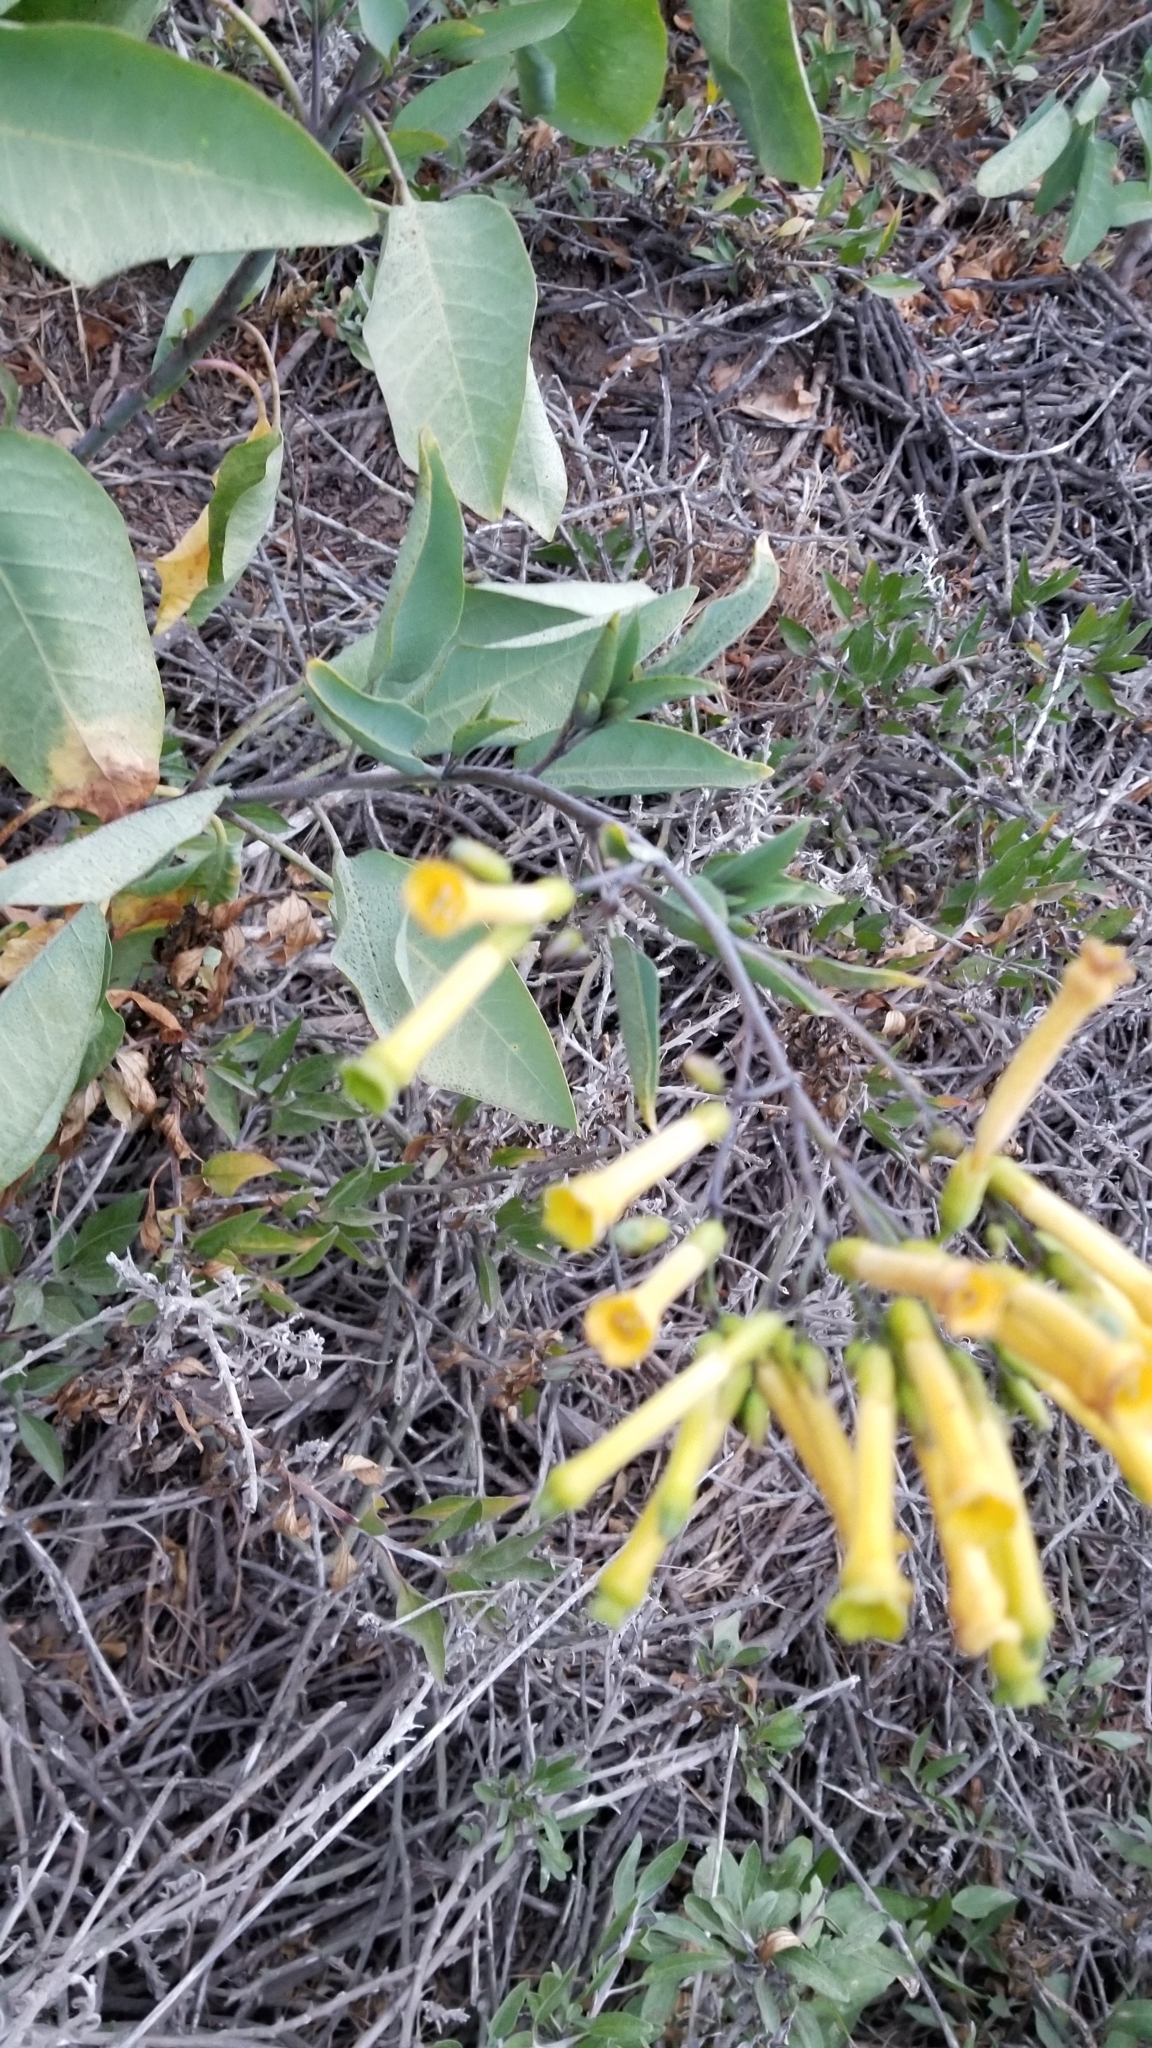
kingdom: Plantae
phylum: Tracheophyta
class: Magnoliopsida
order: Solanales
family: Solanaceae
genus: Nicotiana
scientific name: Nicotiana glauca
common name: Tree tobacco
